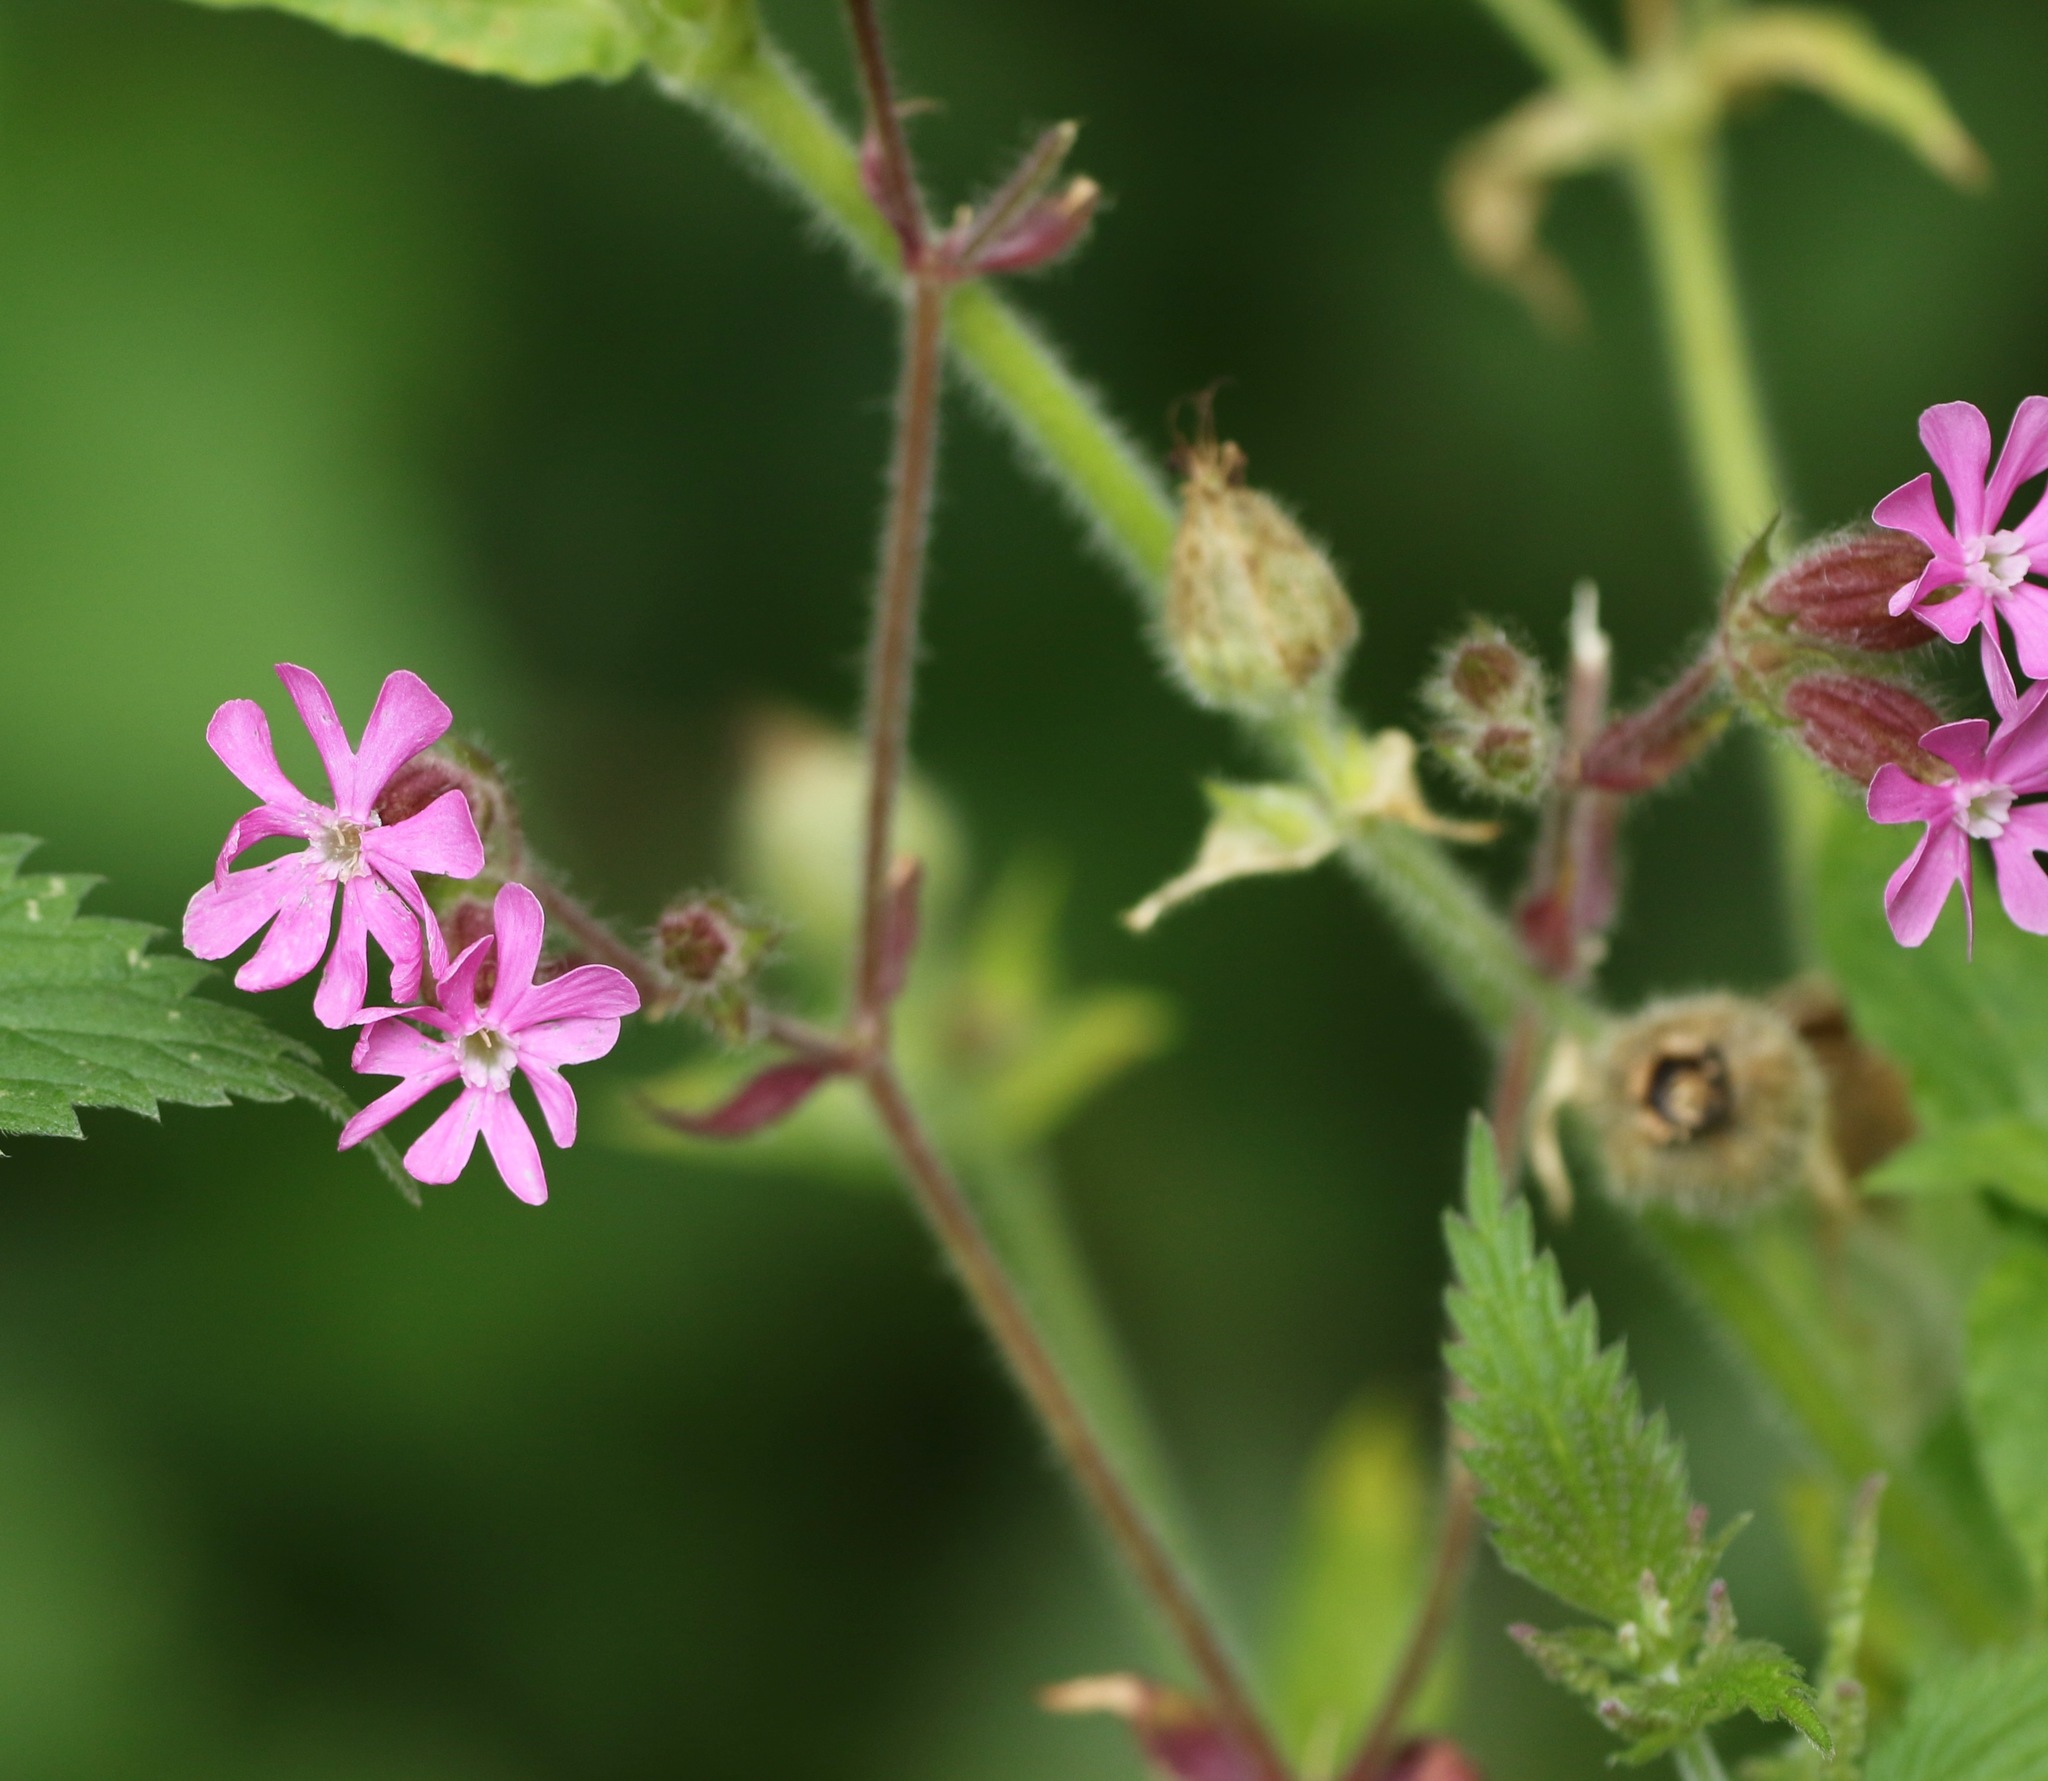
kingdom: Plantae
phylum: Tracheophyta
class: Magnoliopsida
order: Caryophyllales
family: Caryophyllaceae
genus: Silene
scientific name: Silene dioica
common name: Red campion
